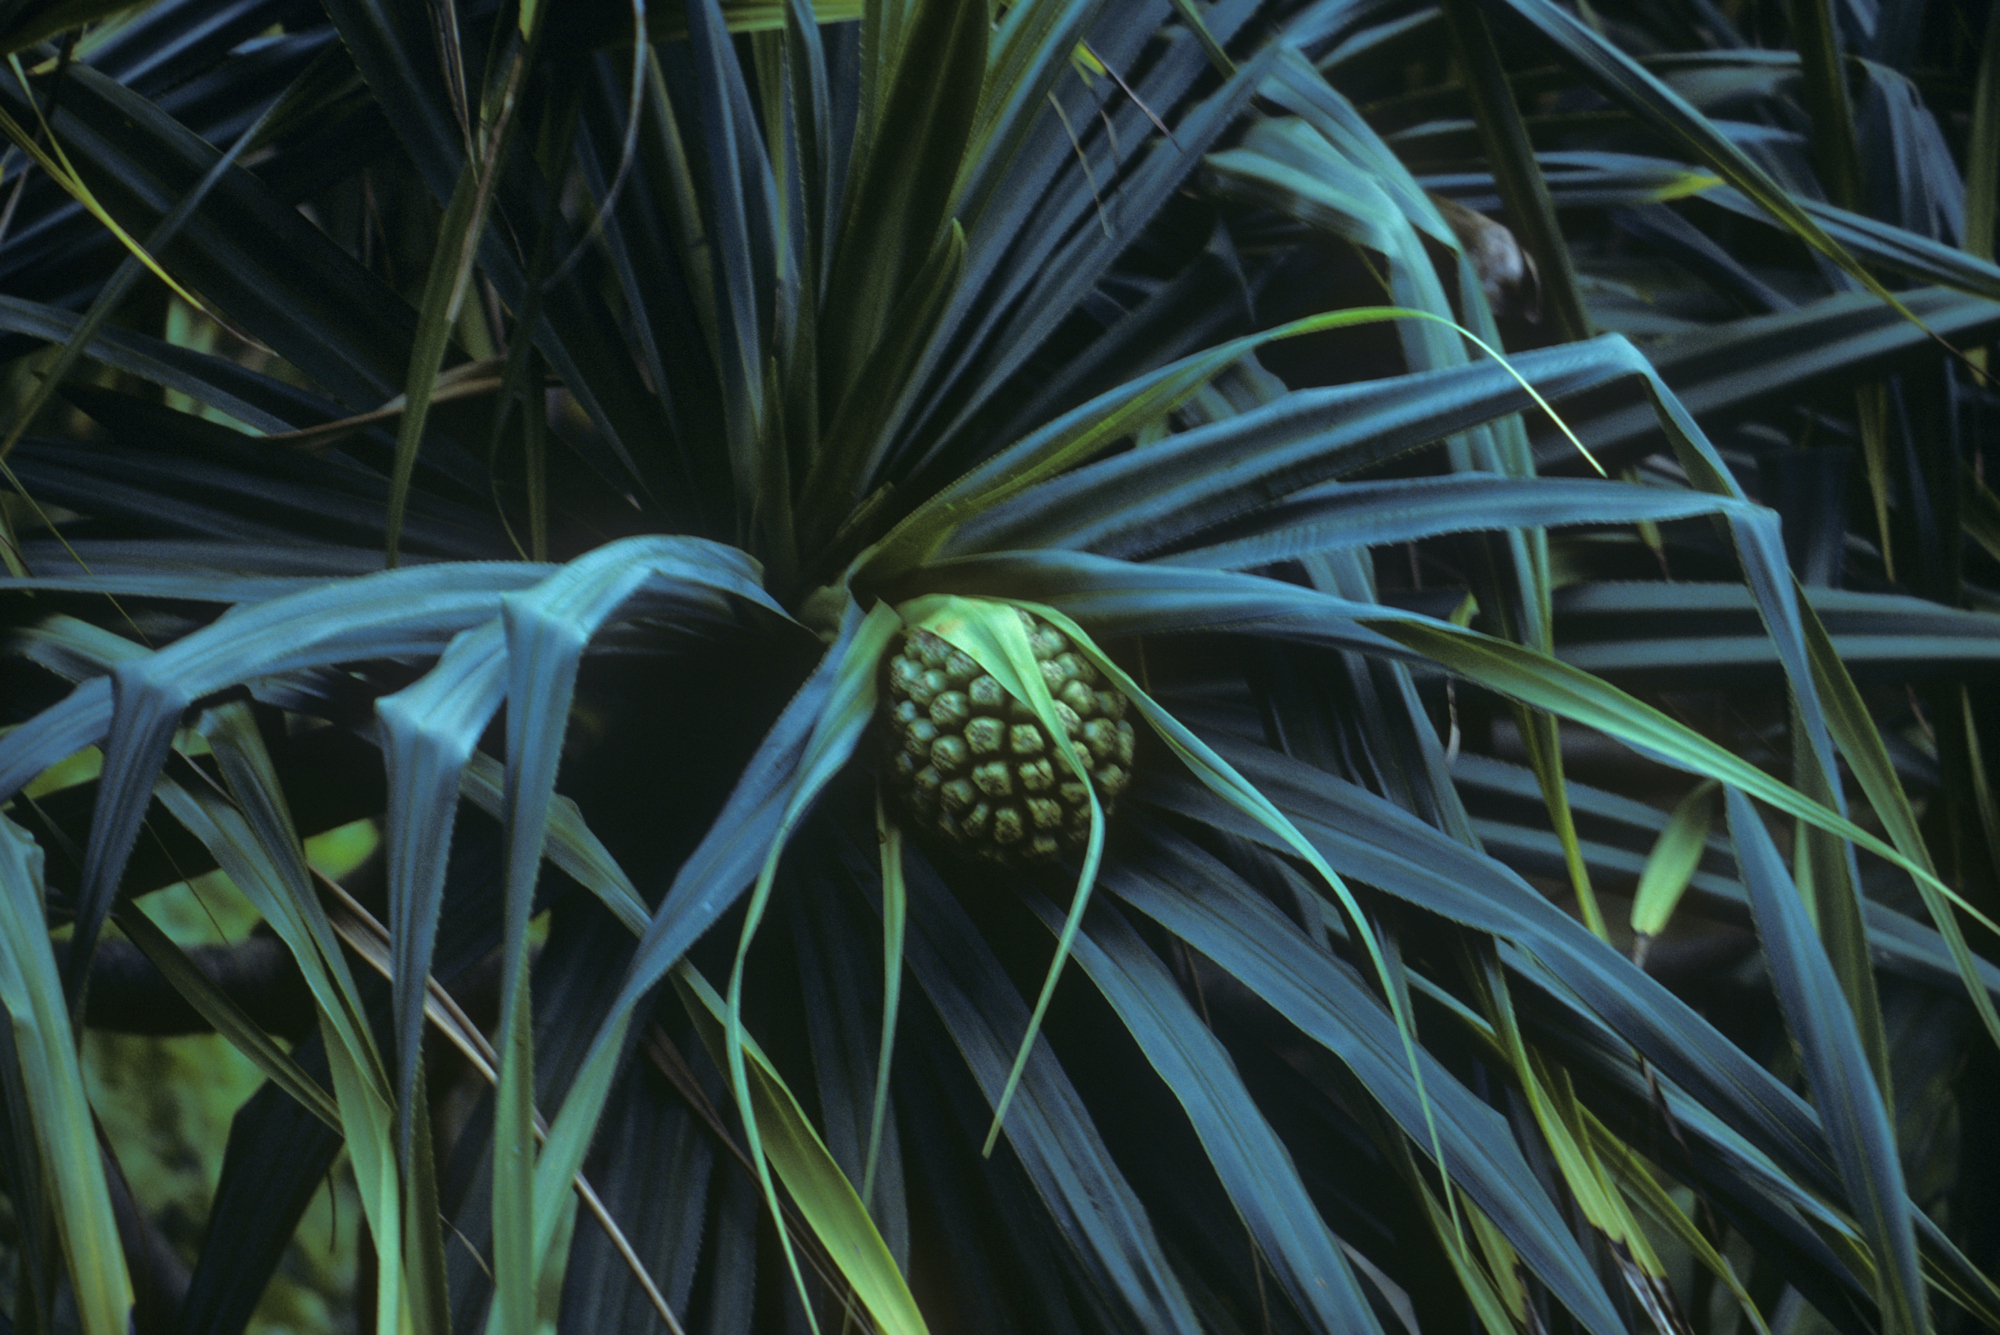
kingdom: Plantae
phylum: Tracheophyta
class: Liliopsida
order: Pandanales
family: Pandanaceae
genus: Pandanus
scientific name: Pandanus tectorius
